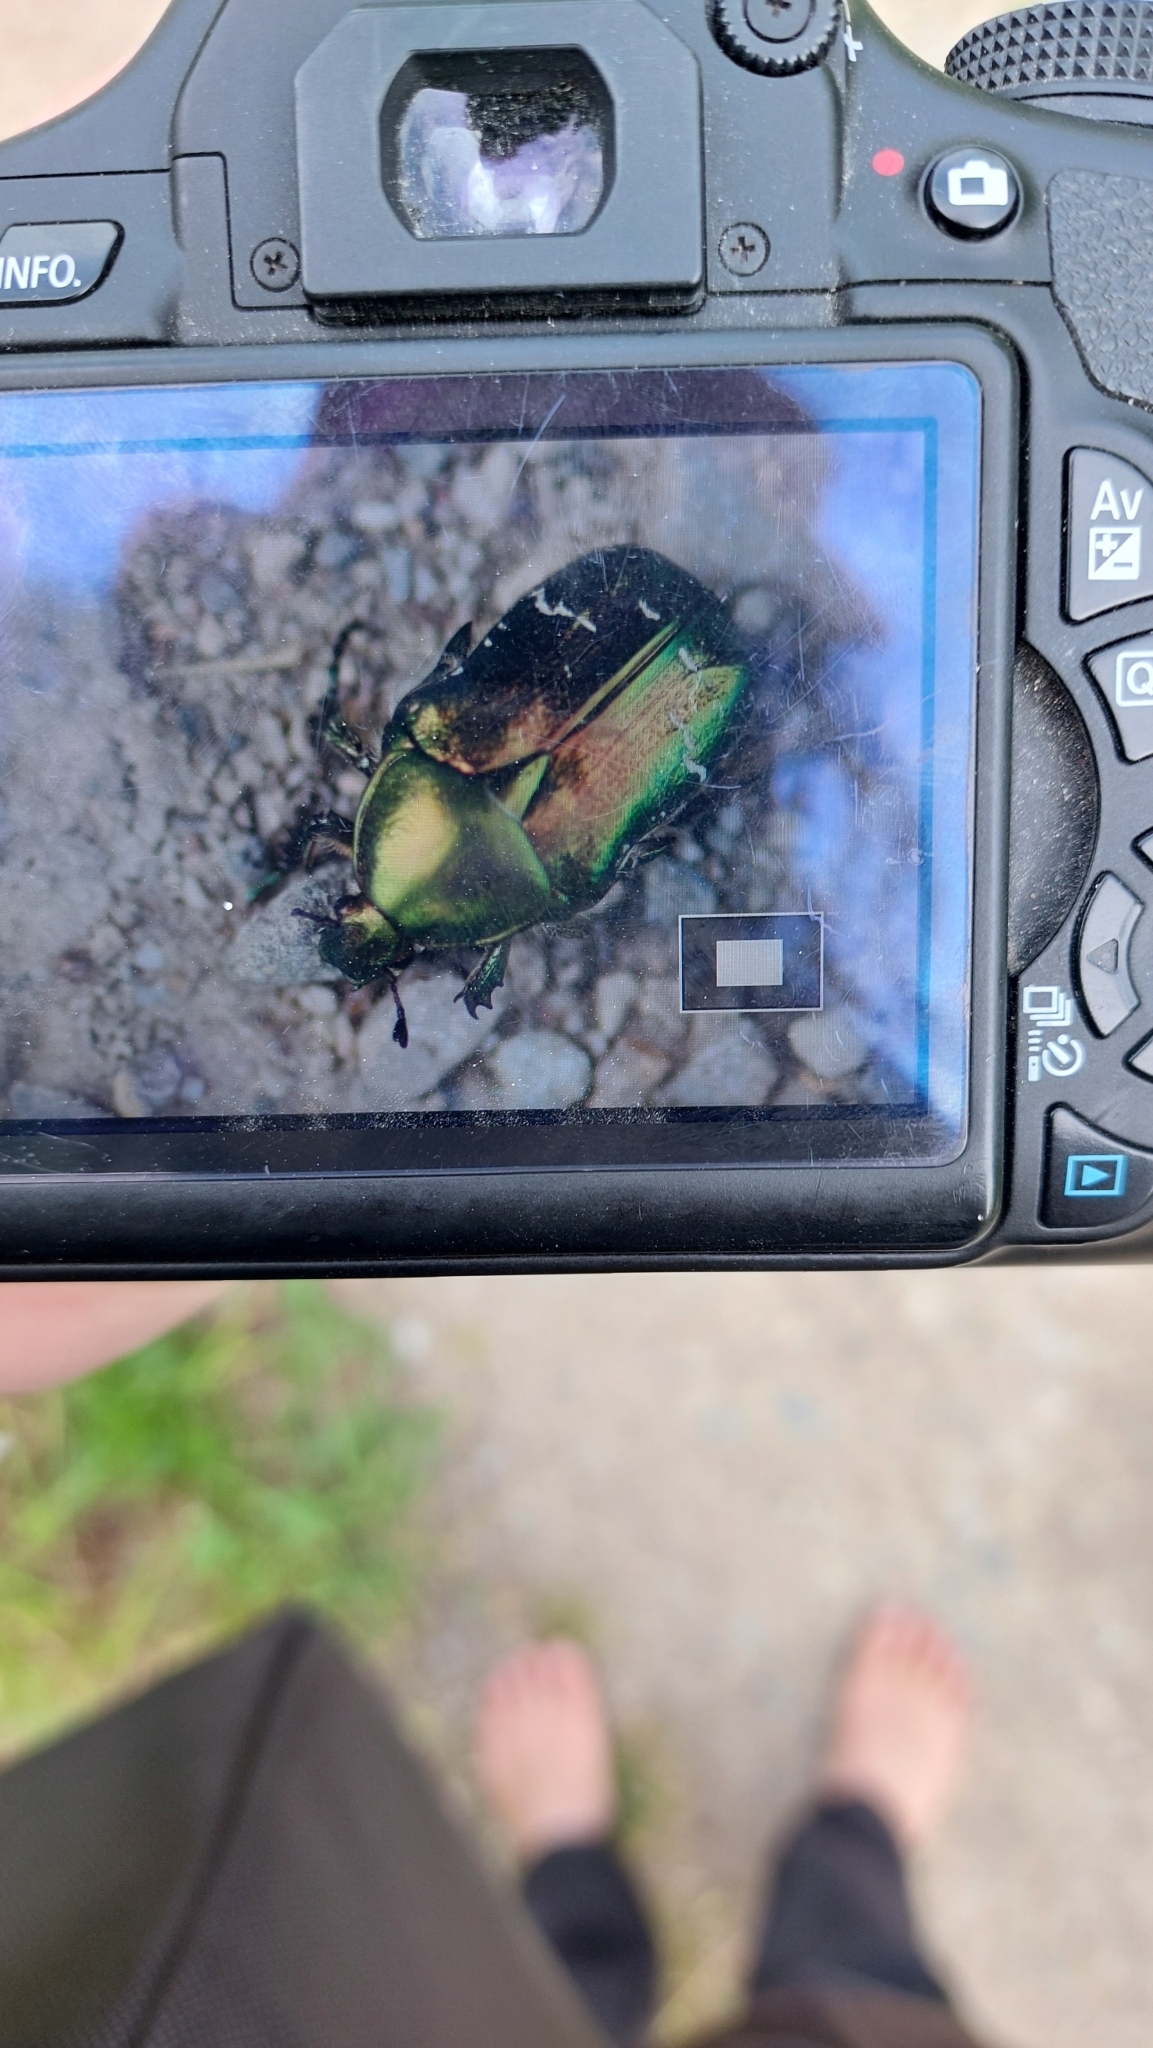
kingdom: Animalia
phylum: Arthropoda
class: Insecta
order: Coleoptera
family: Scarabaeidae
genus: Cetonia
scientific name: Cetonia aurata
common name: Rose chafer
